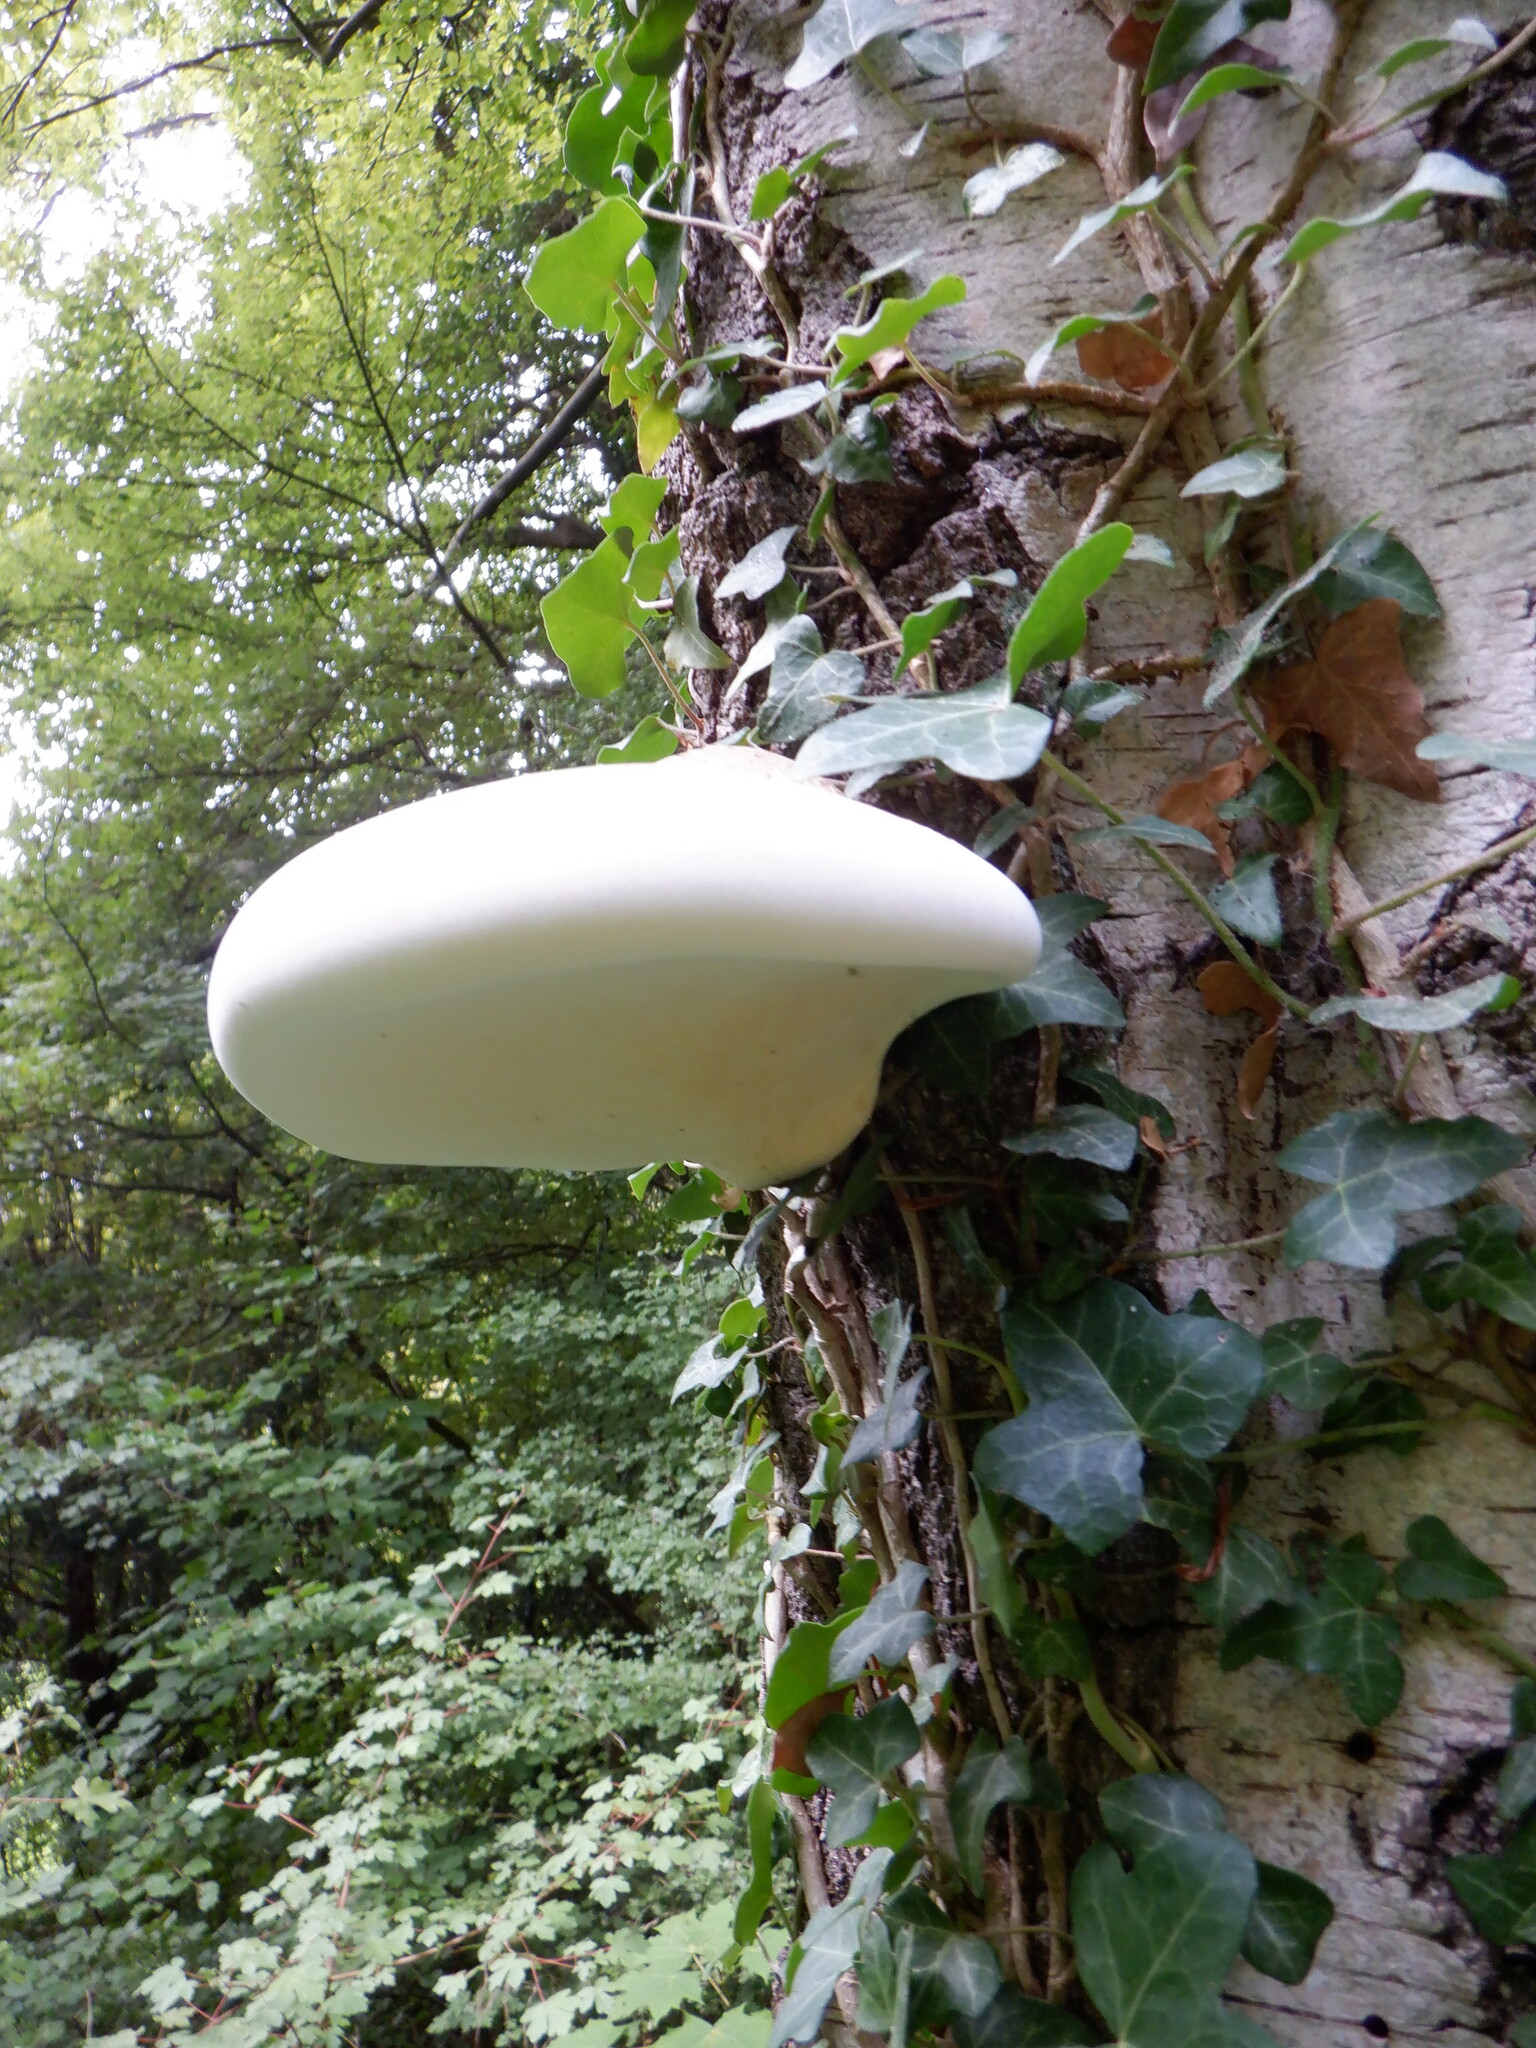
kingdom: Fungi
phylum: Basidiomycota
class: Agaricomycetes
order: Polyporales
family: Fomitopsidaceae
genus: Fomitopsis
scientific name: Fomitopsis betulina
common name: Birch polypore
